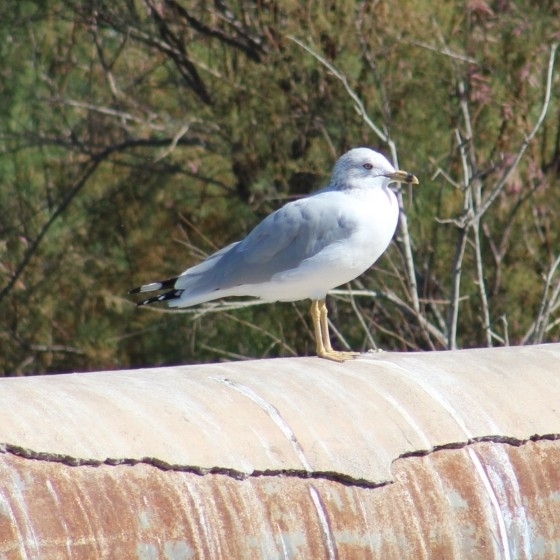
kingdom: Animalia
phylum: Chordata
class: Aves
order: Charadriiformes
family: Laridae
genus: Larus
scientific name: Larus delawarensis
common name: Ring-billed gull
